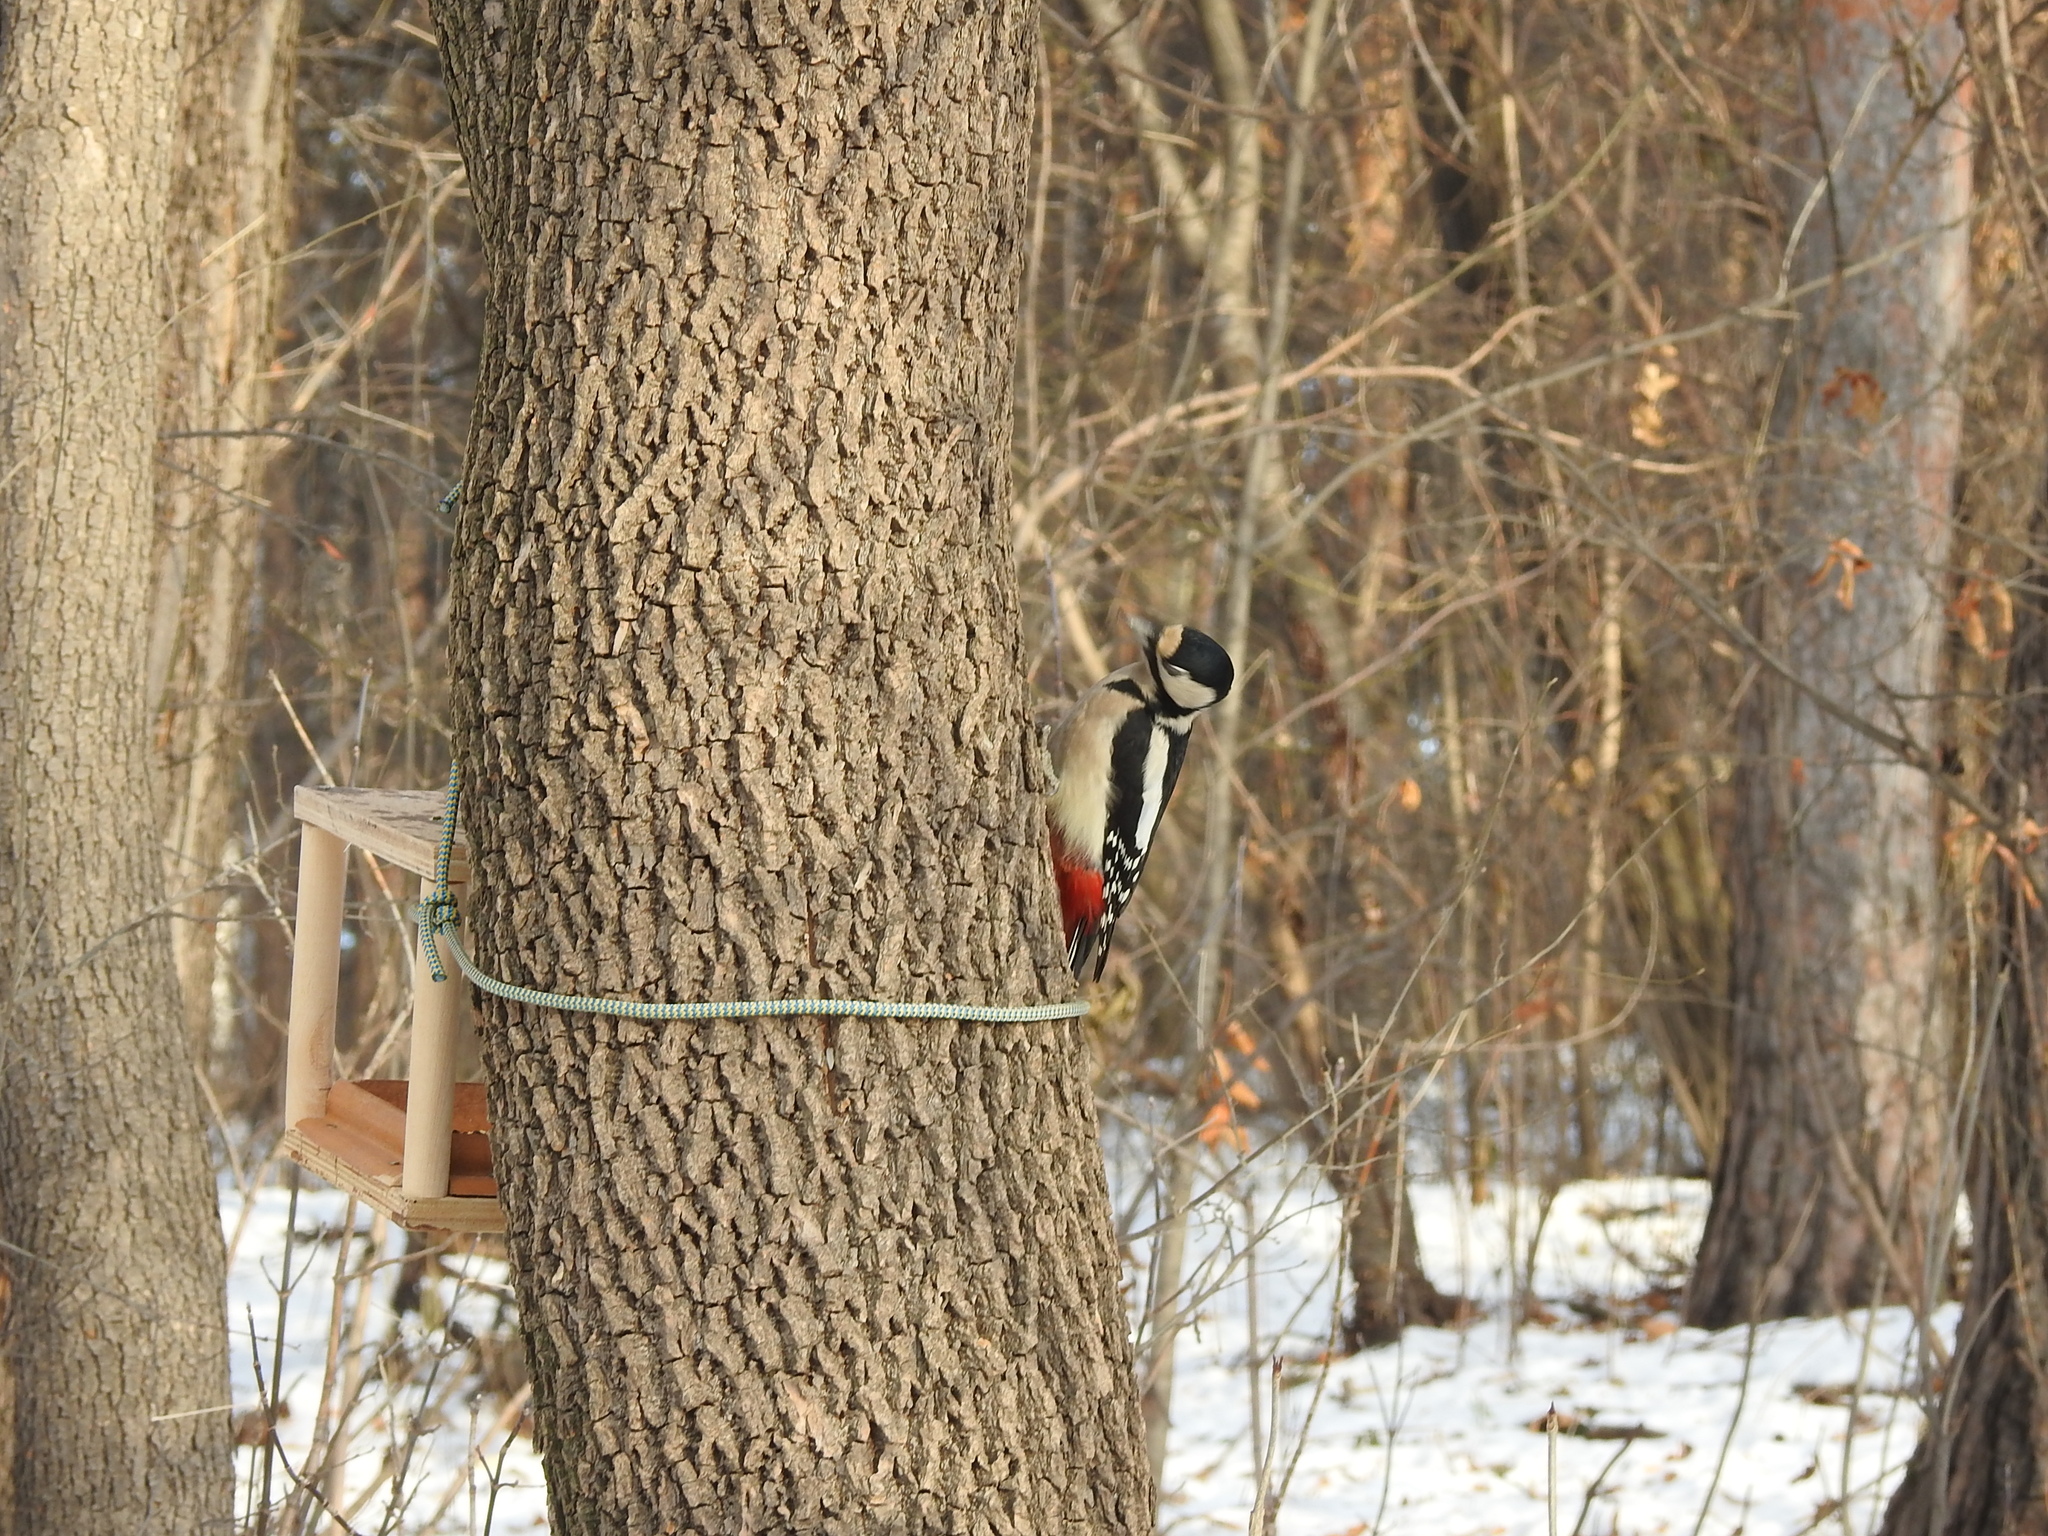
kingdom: Animalia
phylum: Chordata
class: Aves
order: Piciformes
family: Picidae
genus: Dendrocopos
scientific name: Dendrocopos major
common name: Great spotted woodpecker
